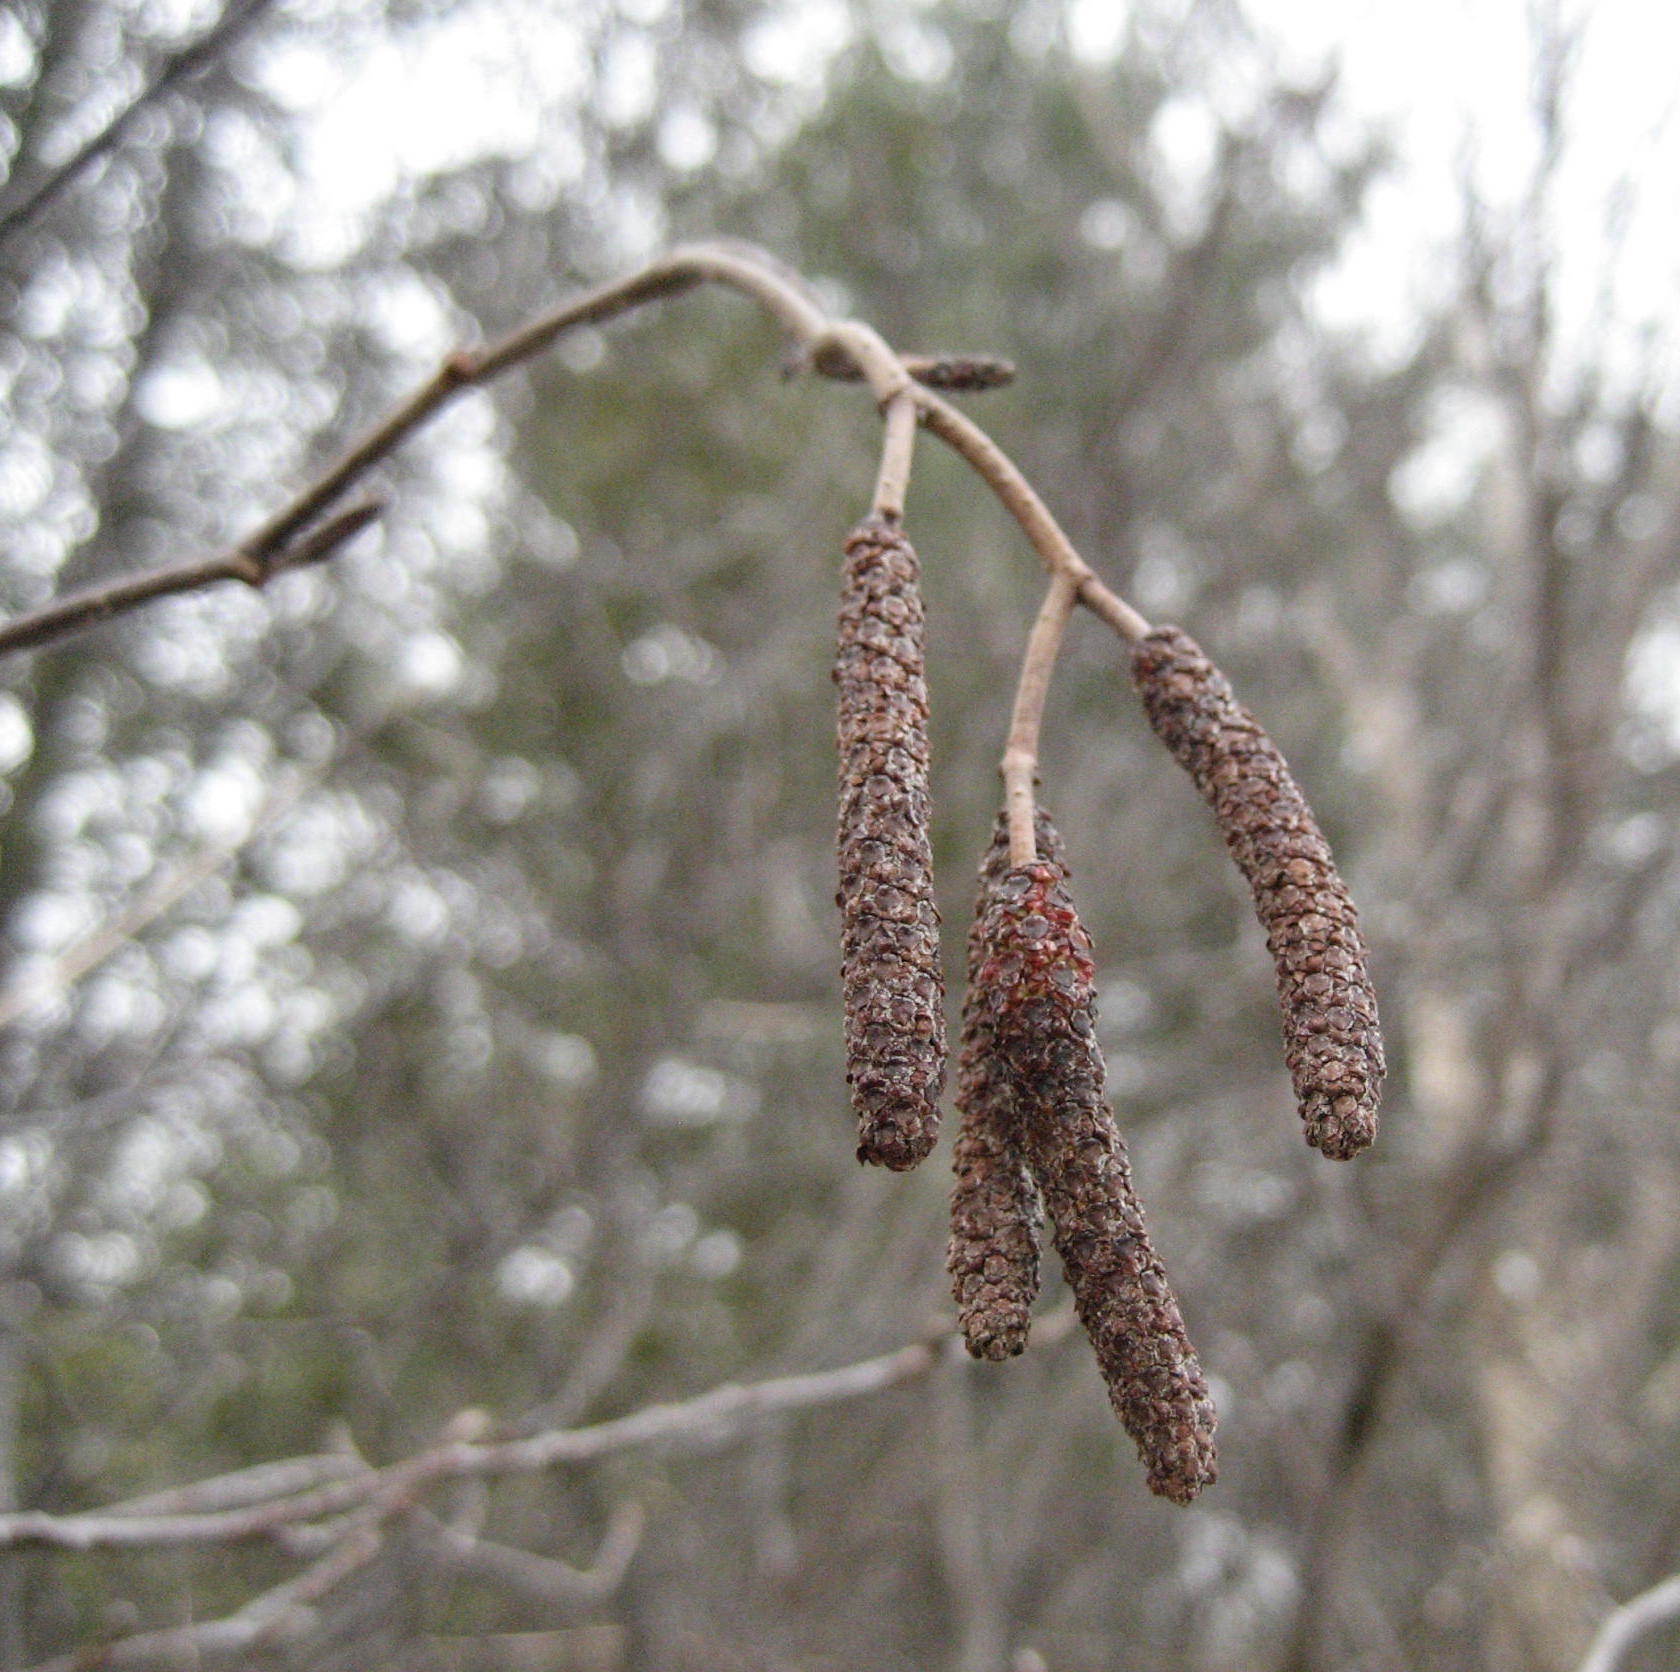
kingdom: Plantae
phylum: Tracheophyta
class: Magnoliopsida
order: Fagales
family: Betulaceae
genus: Alnus
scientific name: Alnus incana
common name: Grey alder
